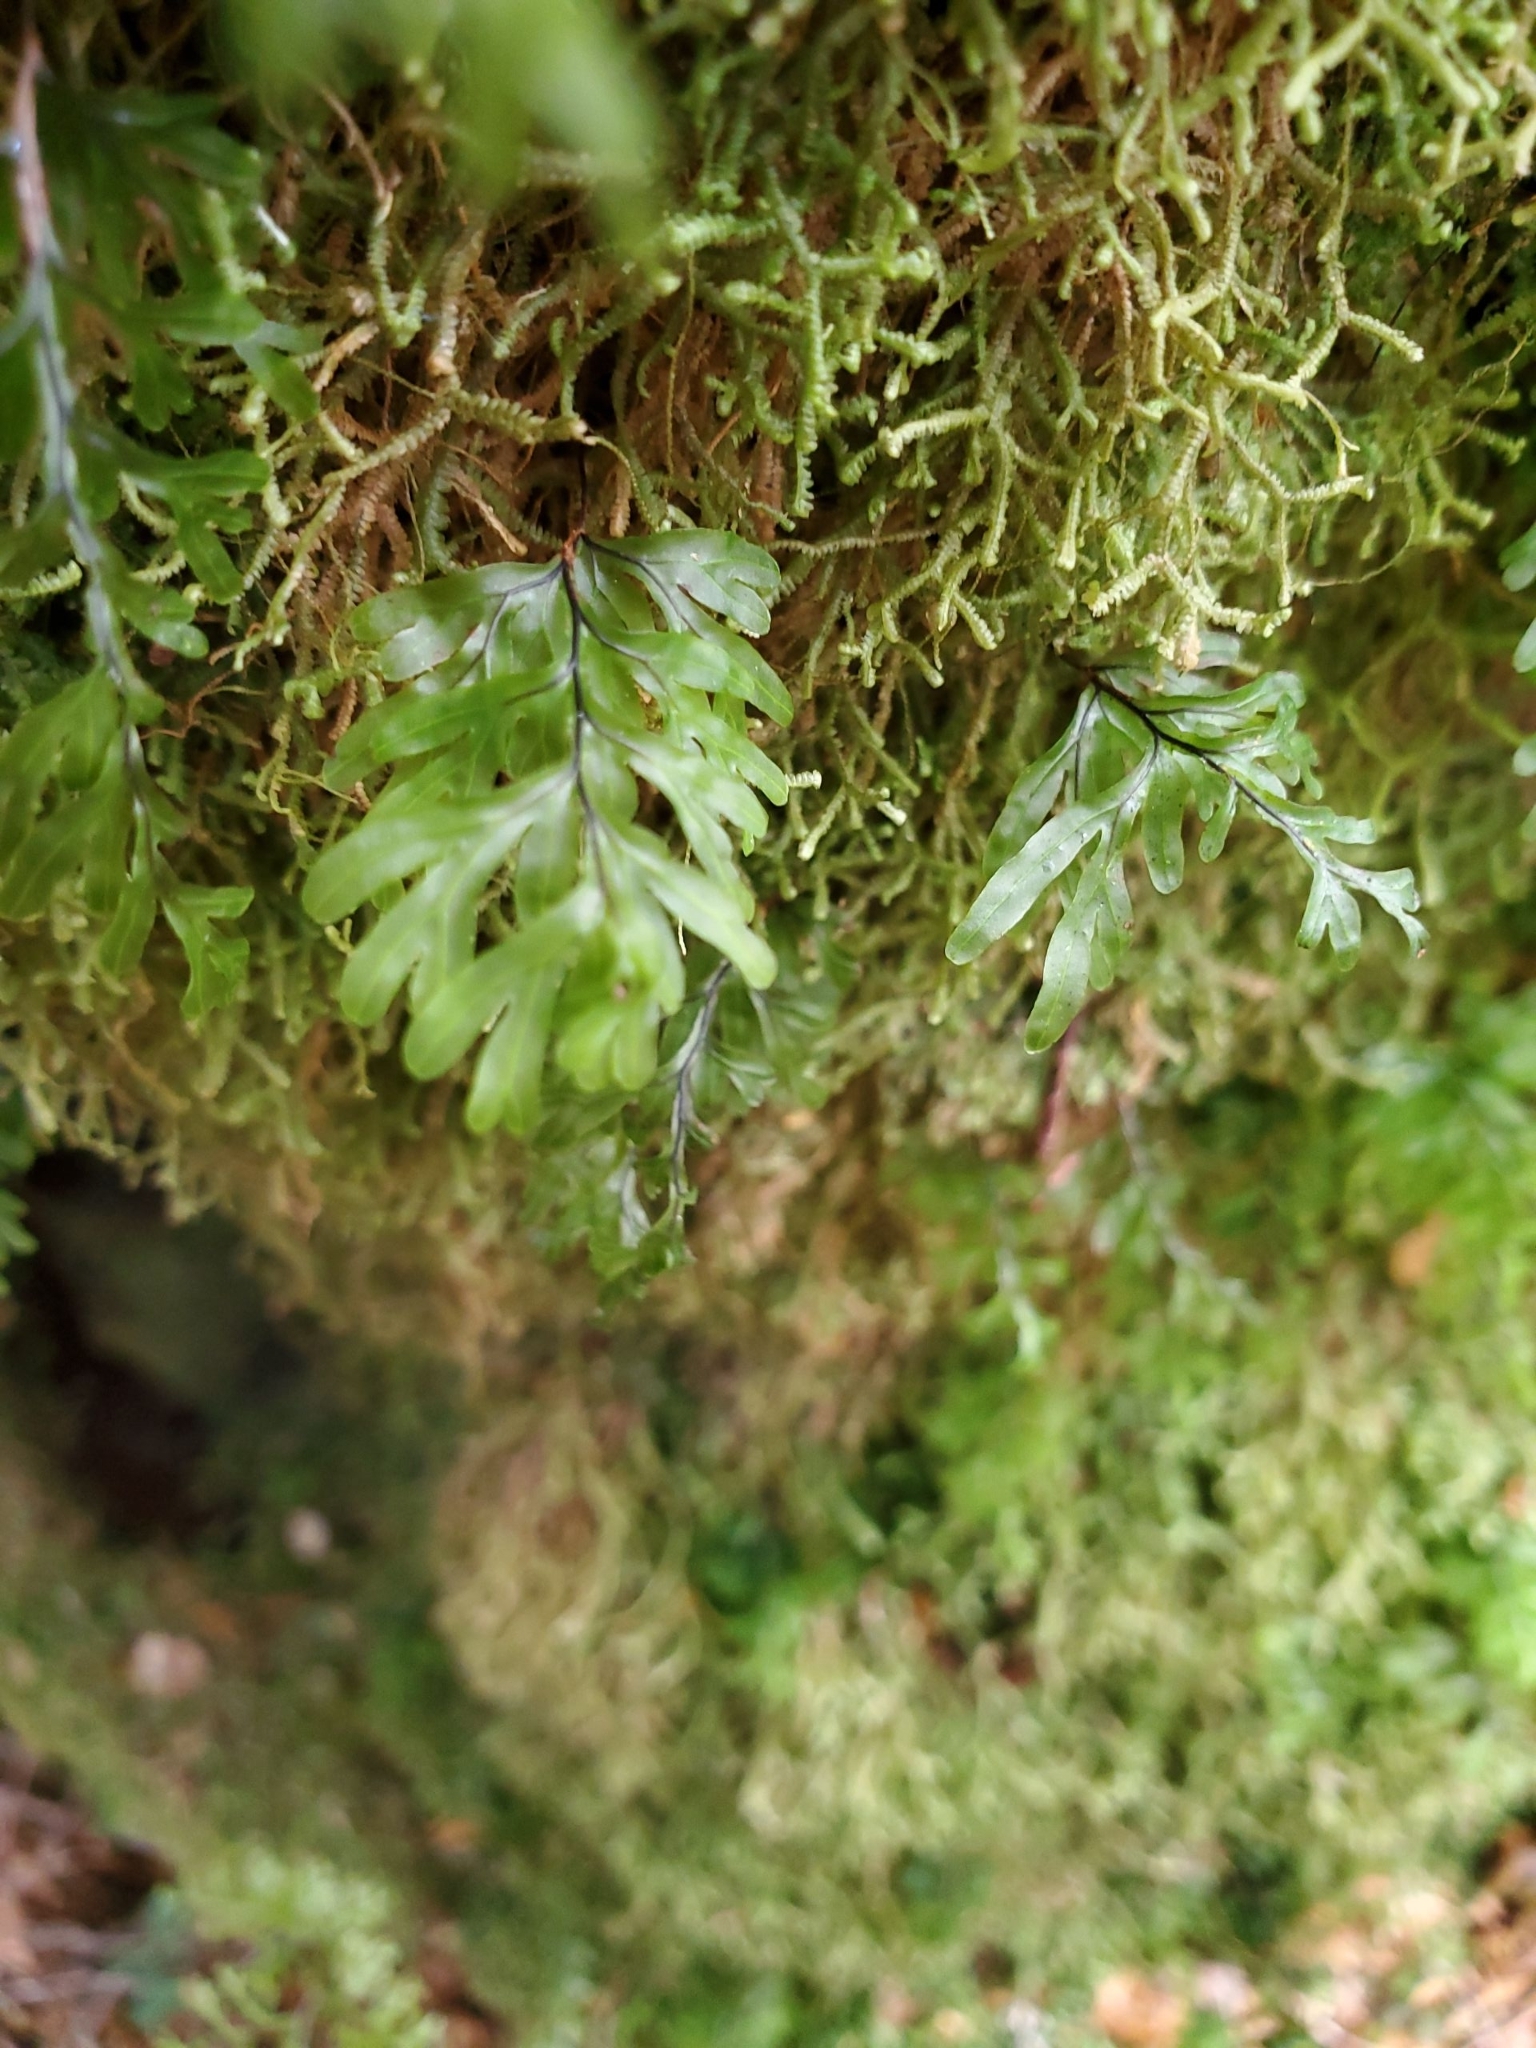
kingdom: Plantae
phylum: Tracheophyta
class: Polypodiopsida
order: Hymenophyllales
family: Hymenophyllaceae
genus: Hymenophyllum
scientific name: Hymenophyllum rarum
